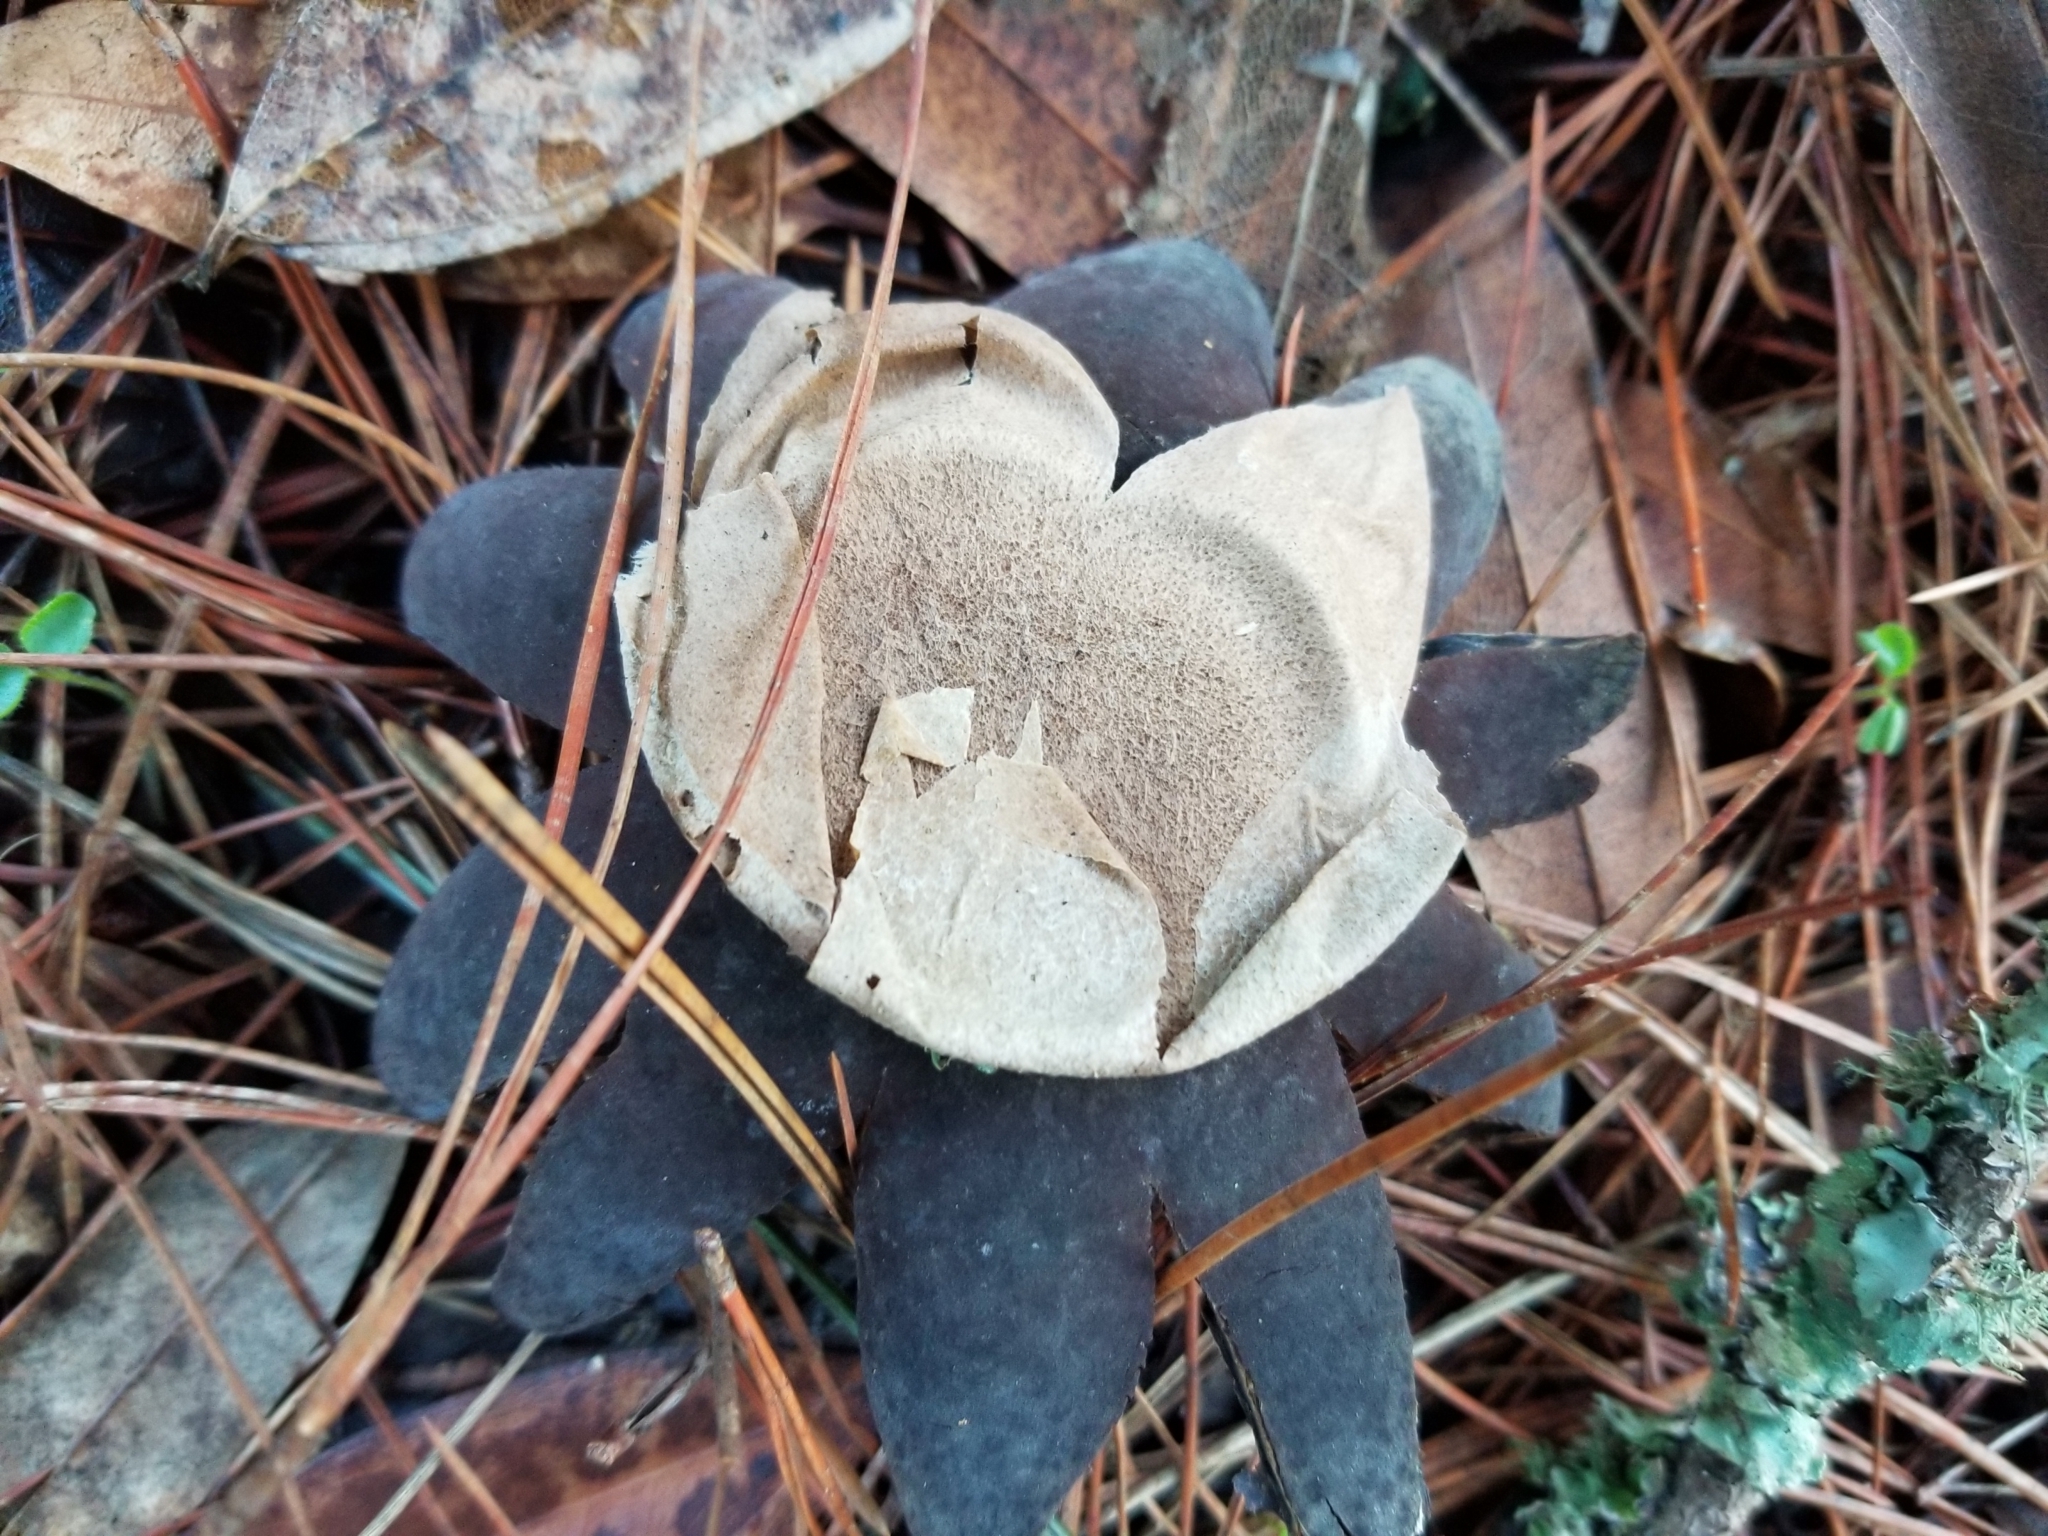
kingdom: Fungi
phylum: Basidiomycota
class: Agaricomycetes
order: Boletales
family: Diplocystidiaceae
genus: Astraeus
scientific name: Astraeus hygrometricus
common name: Barometer earthstar
